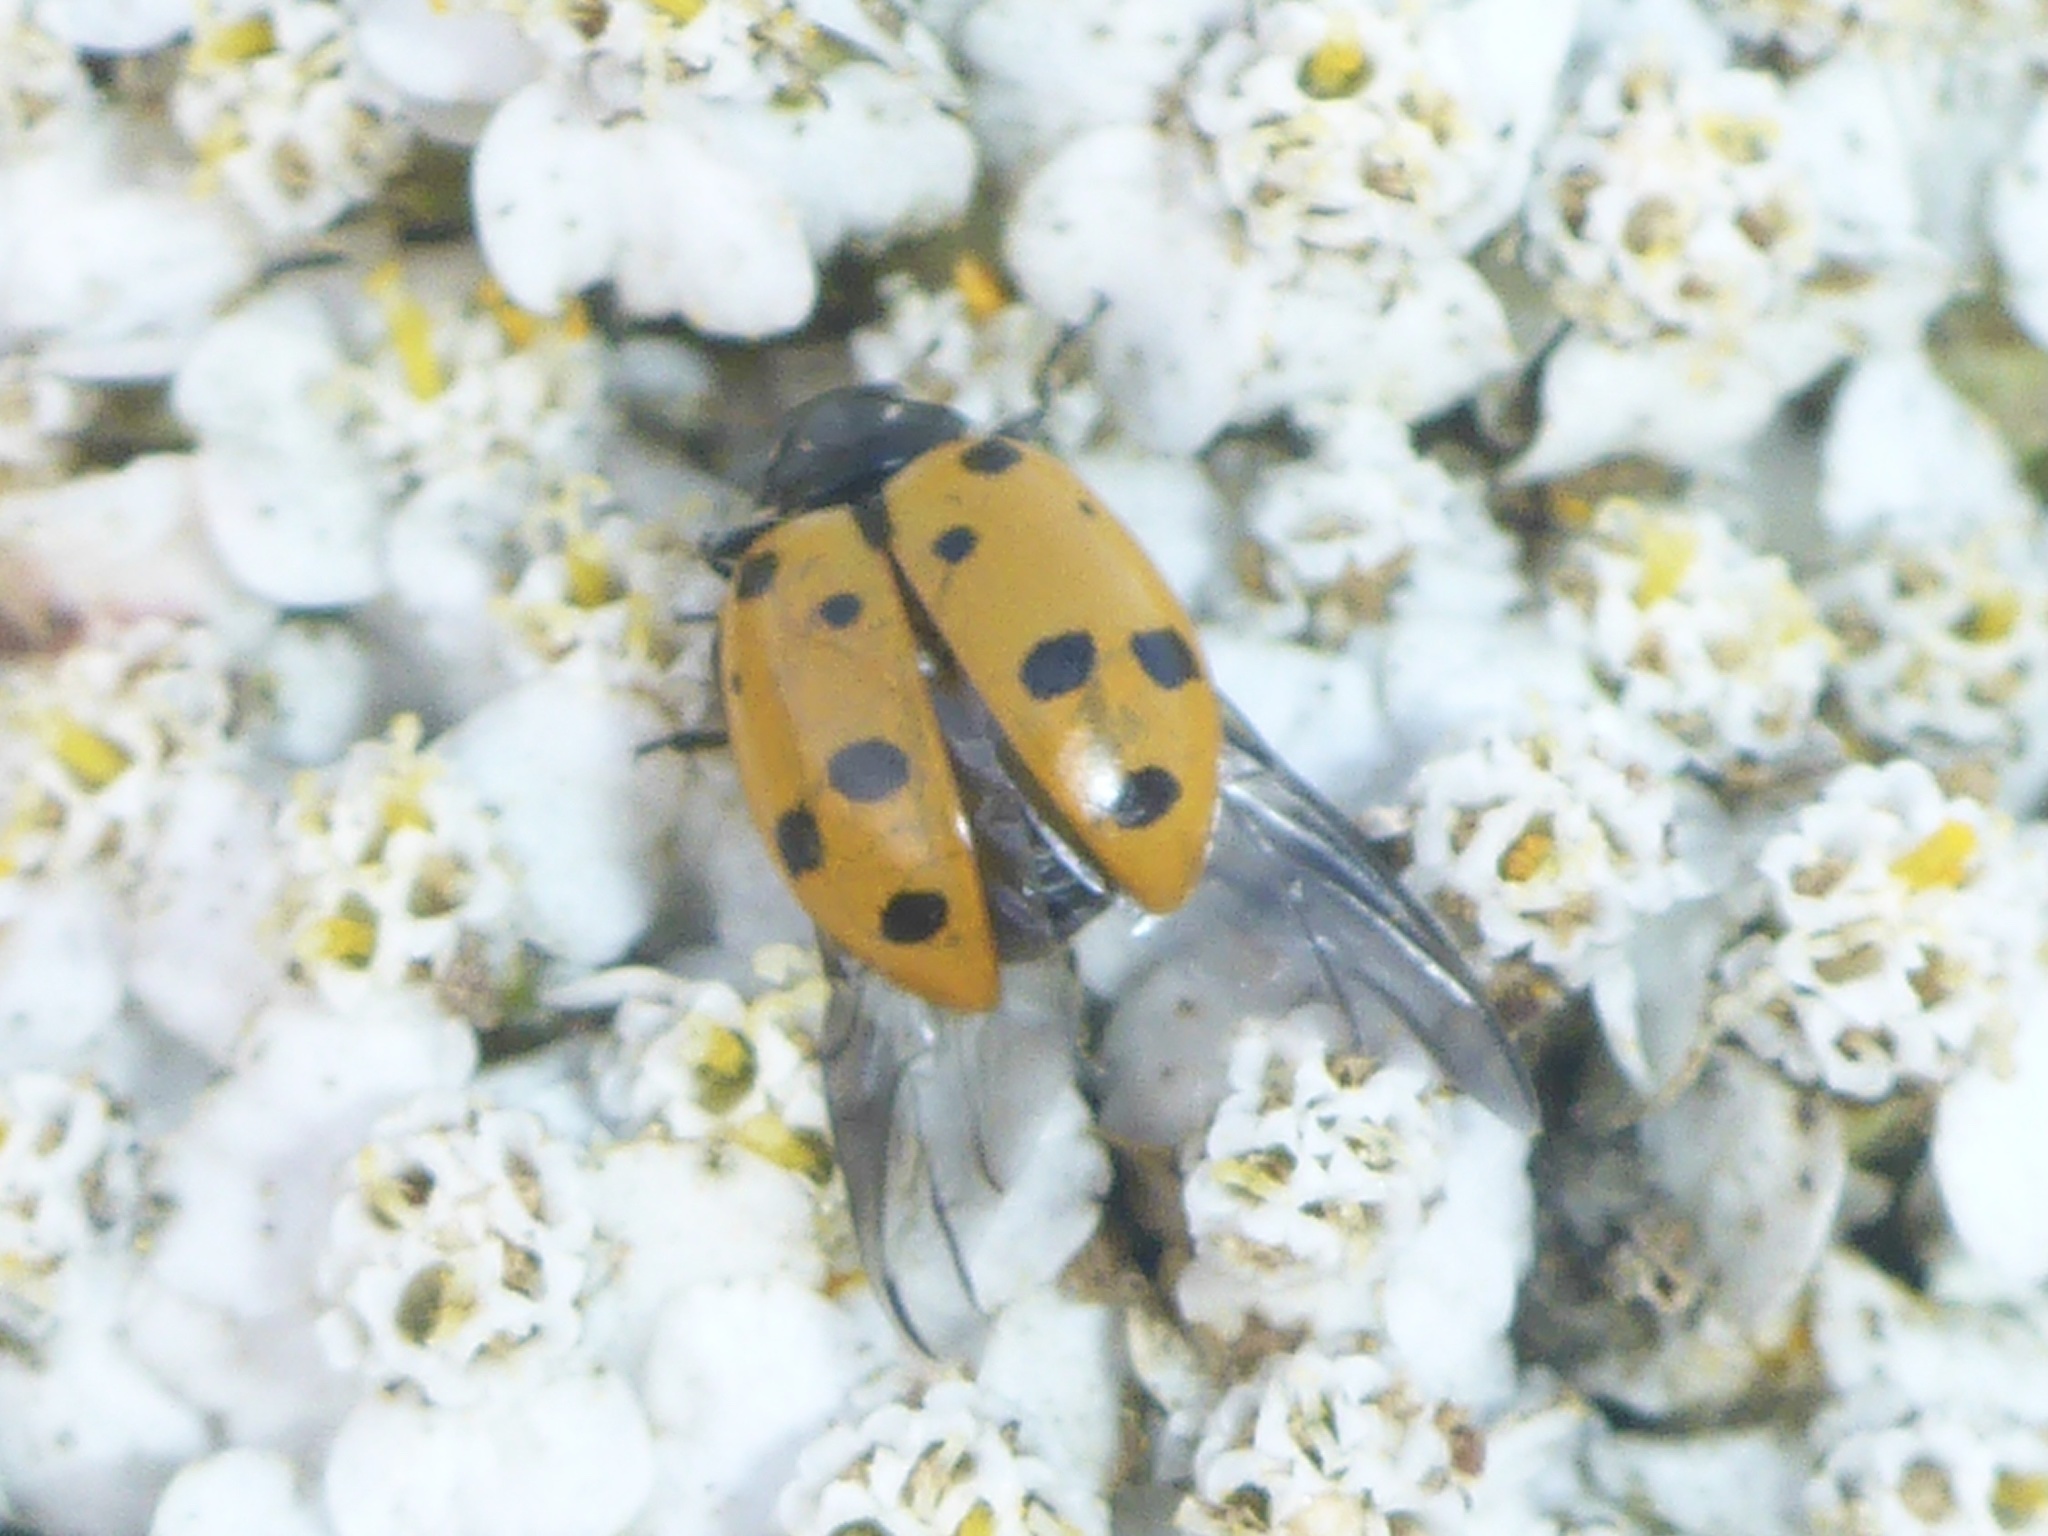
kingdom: Animalia
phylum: Arthropoda
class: Insecta
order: Coleoptera
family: Coccinellidae
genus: Hippodamia
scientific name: Hippodamia convergens
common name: Convergent lady beetle
